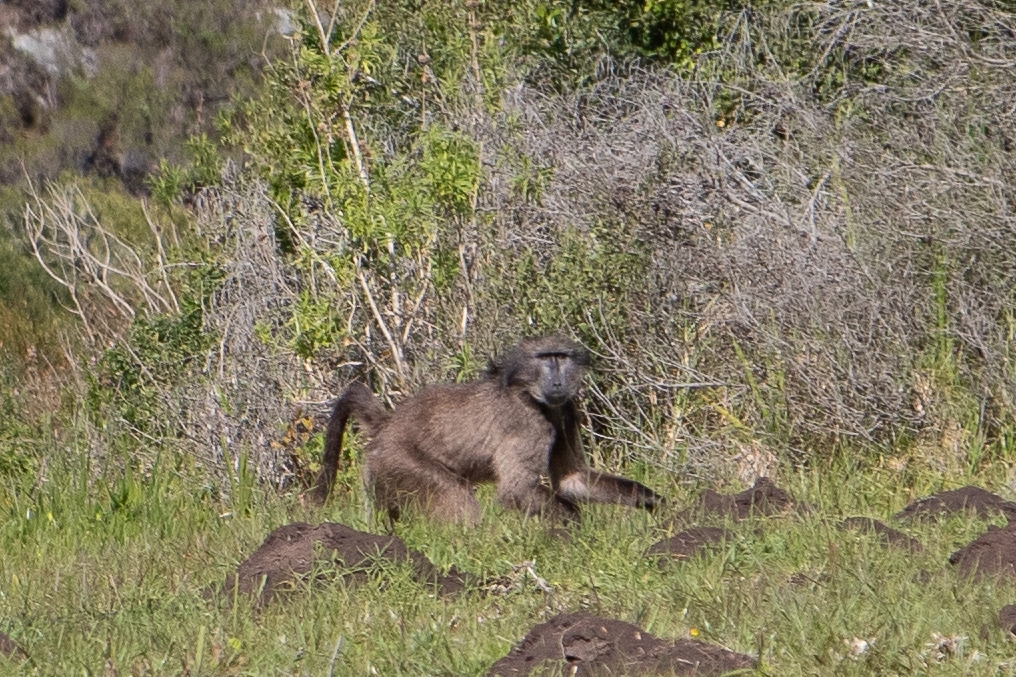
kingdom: Animalia
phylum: Chordata
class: Mammalia
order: Primates
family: Cercopithecidae
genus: Papio
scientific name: Papio ursinus
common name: Chacma baboon
